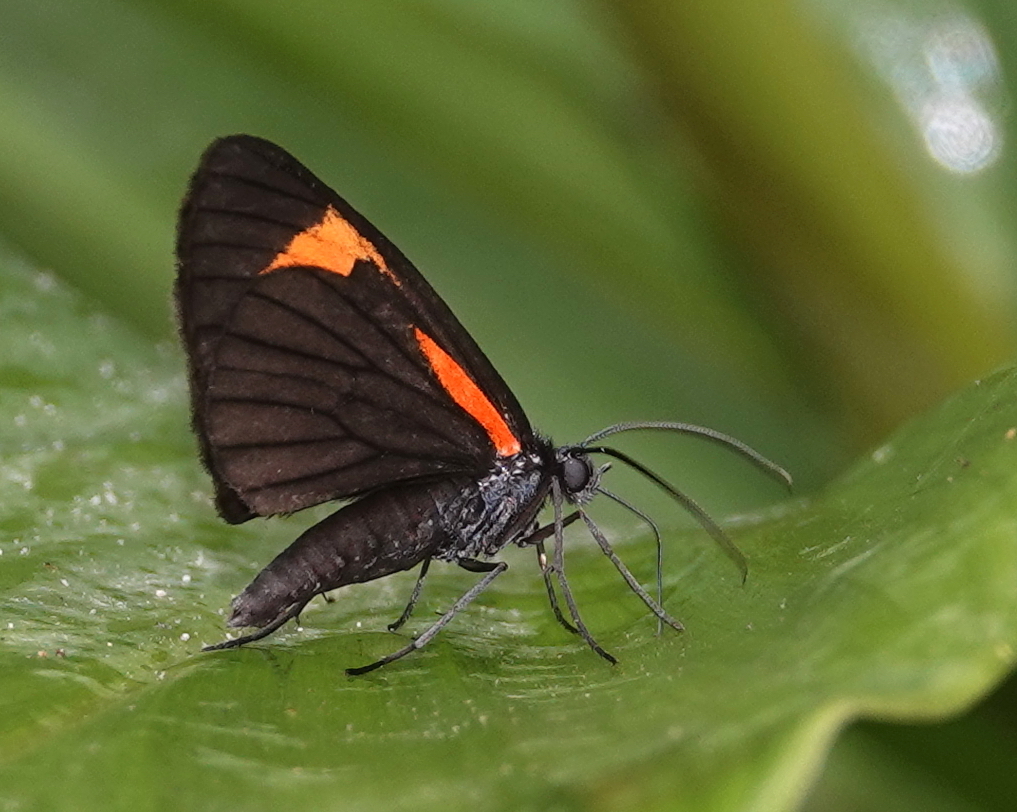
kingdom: Animalia
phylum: Arthropoda
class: Insecta
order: Lepidoptera
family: Geometridae
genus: Siosta
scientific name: Siosta bifasciata
